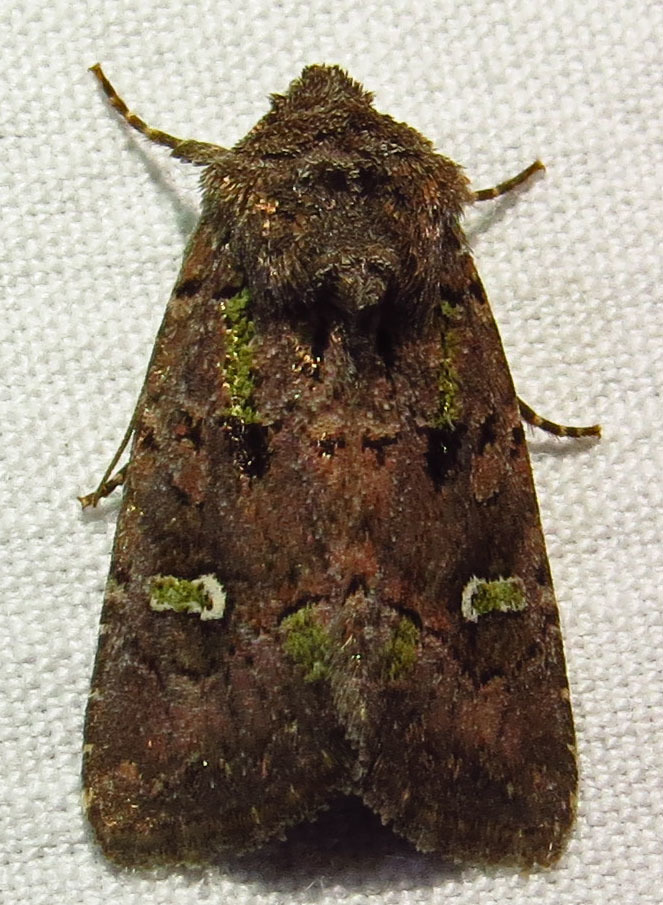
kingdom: Animalia
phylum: Arthropoda
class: Insecta
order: Lepidoptera
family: Noctuidae
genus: Lacinipolia
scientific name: Lacinipolia renigera
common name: Kidney-spotted minor
